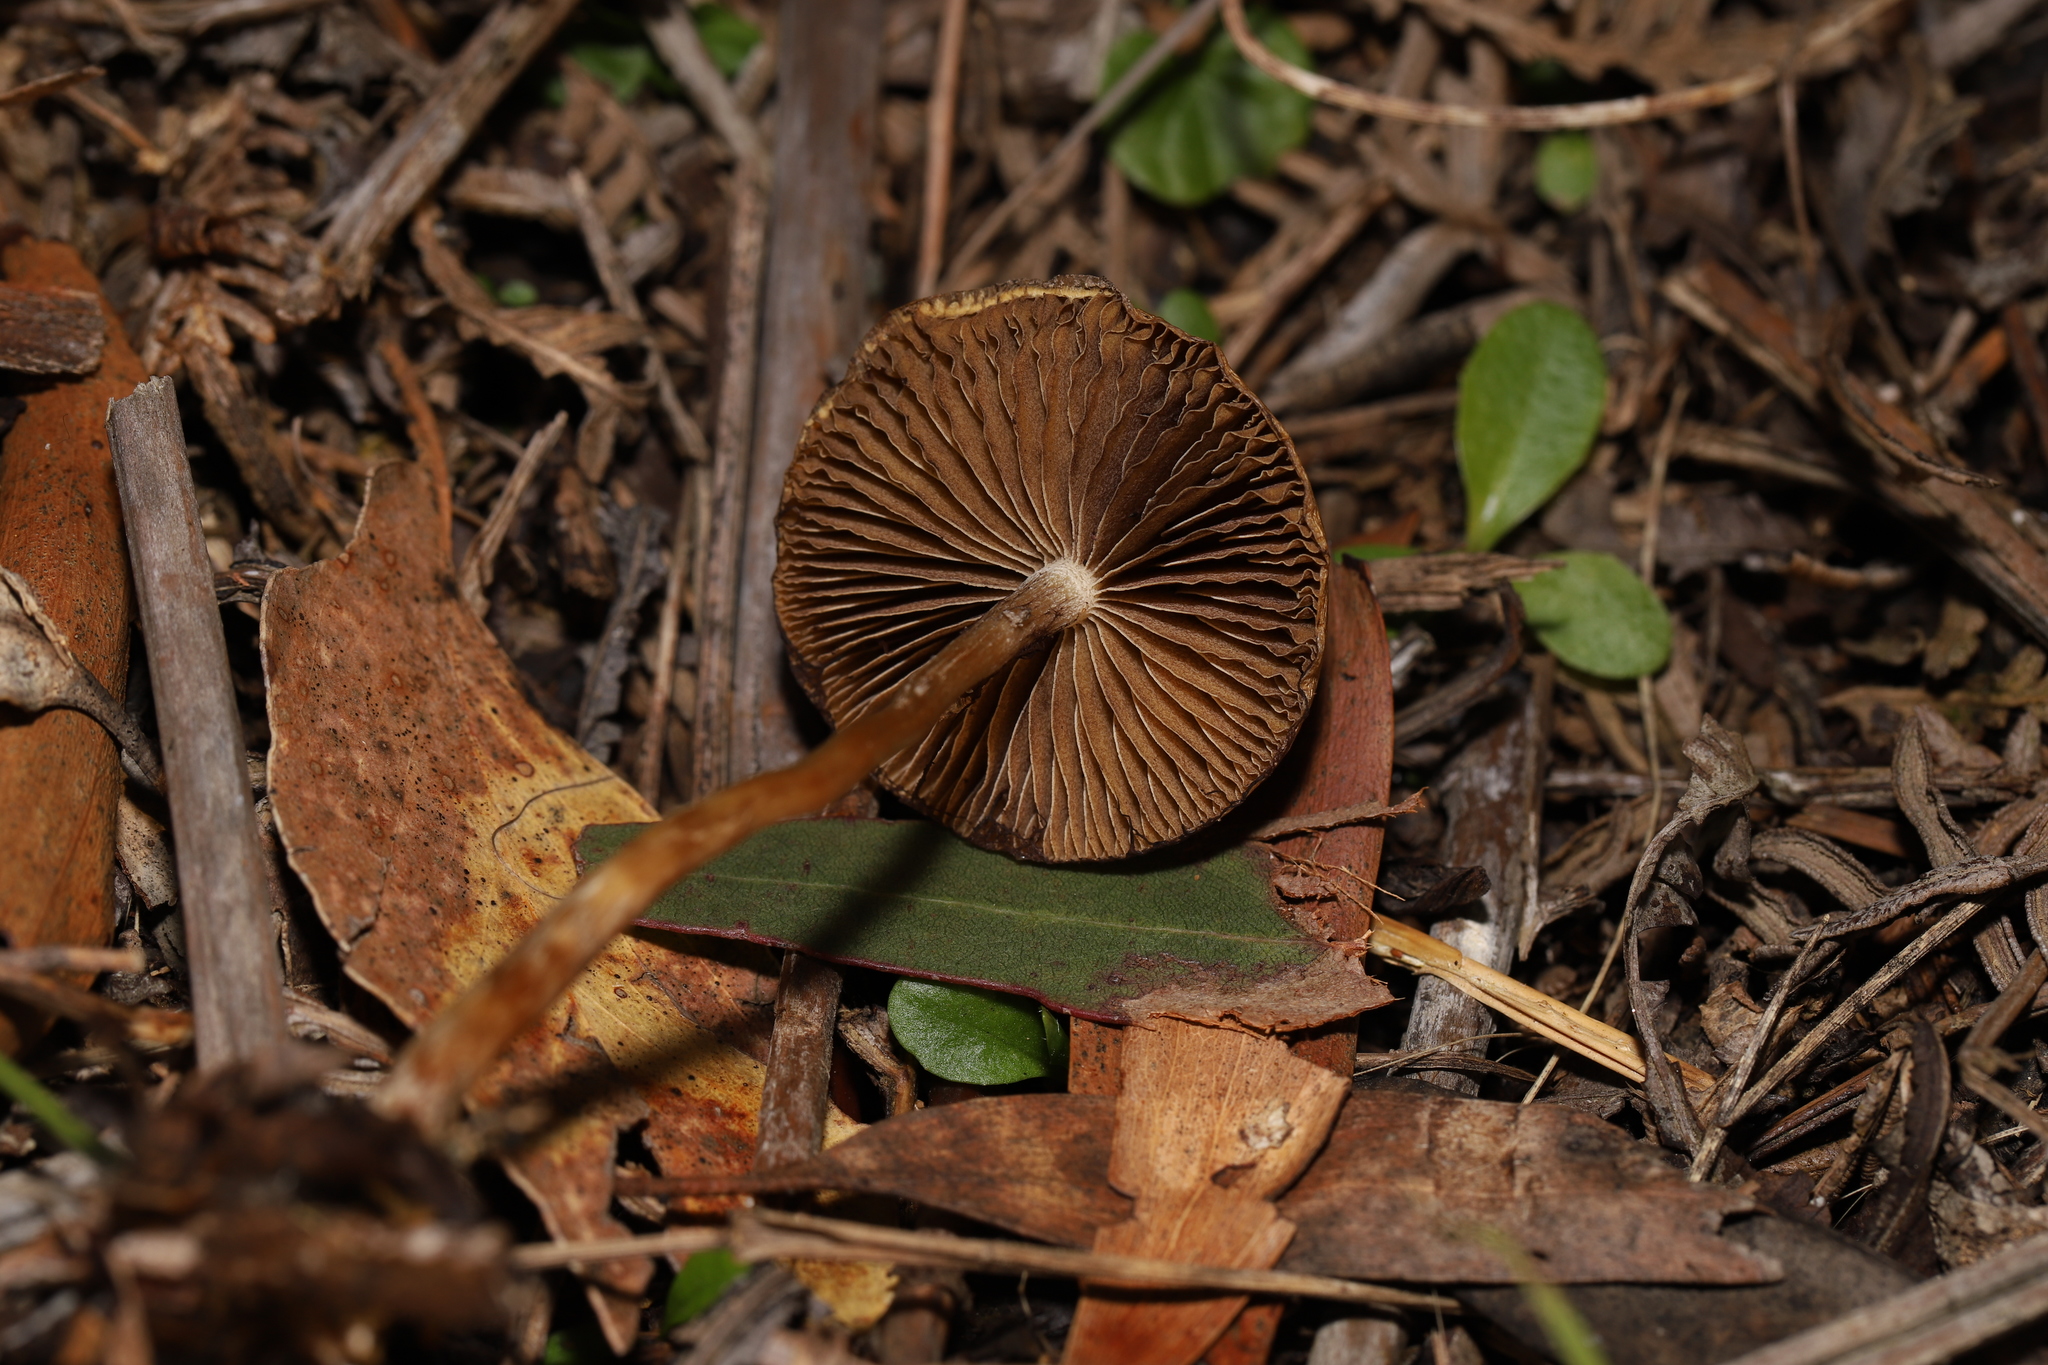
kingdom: Fungi
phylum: Basidiomycota
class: Agaricomycetes
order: Agaricales
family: Hymenogastraceae
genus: Psilocybe
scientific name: Psilocybe subaeruginosa
